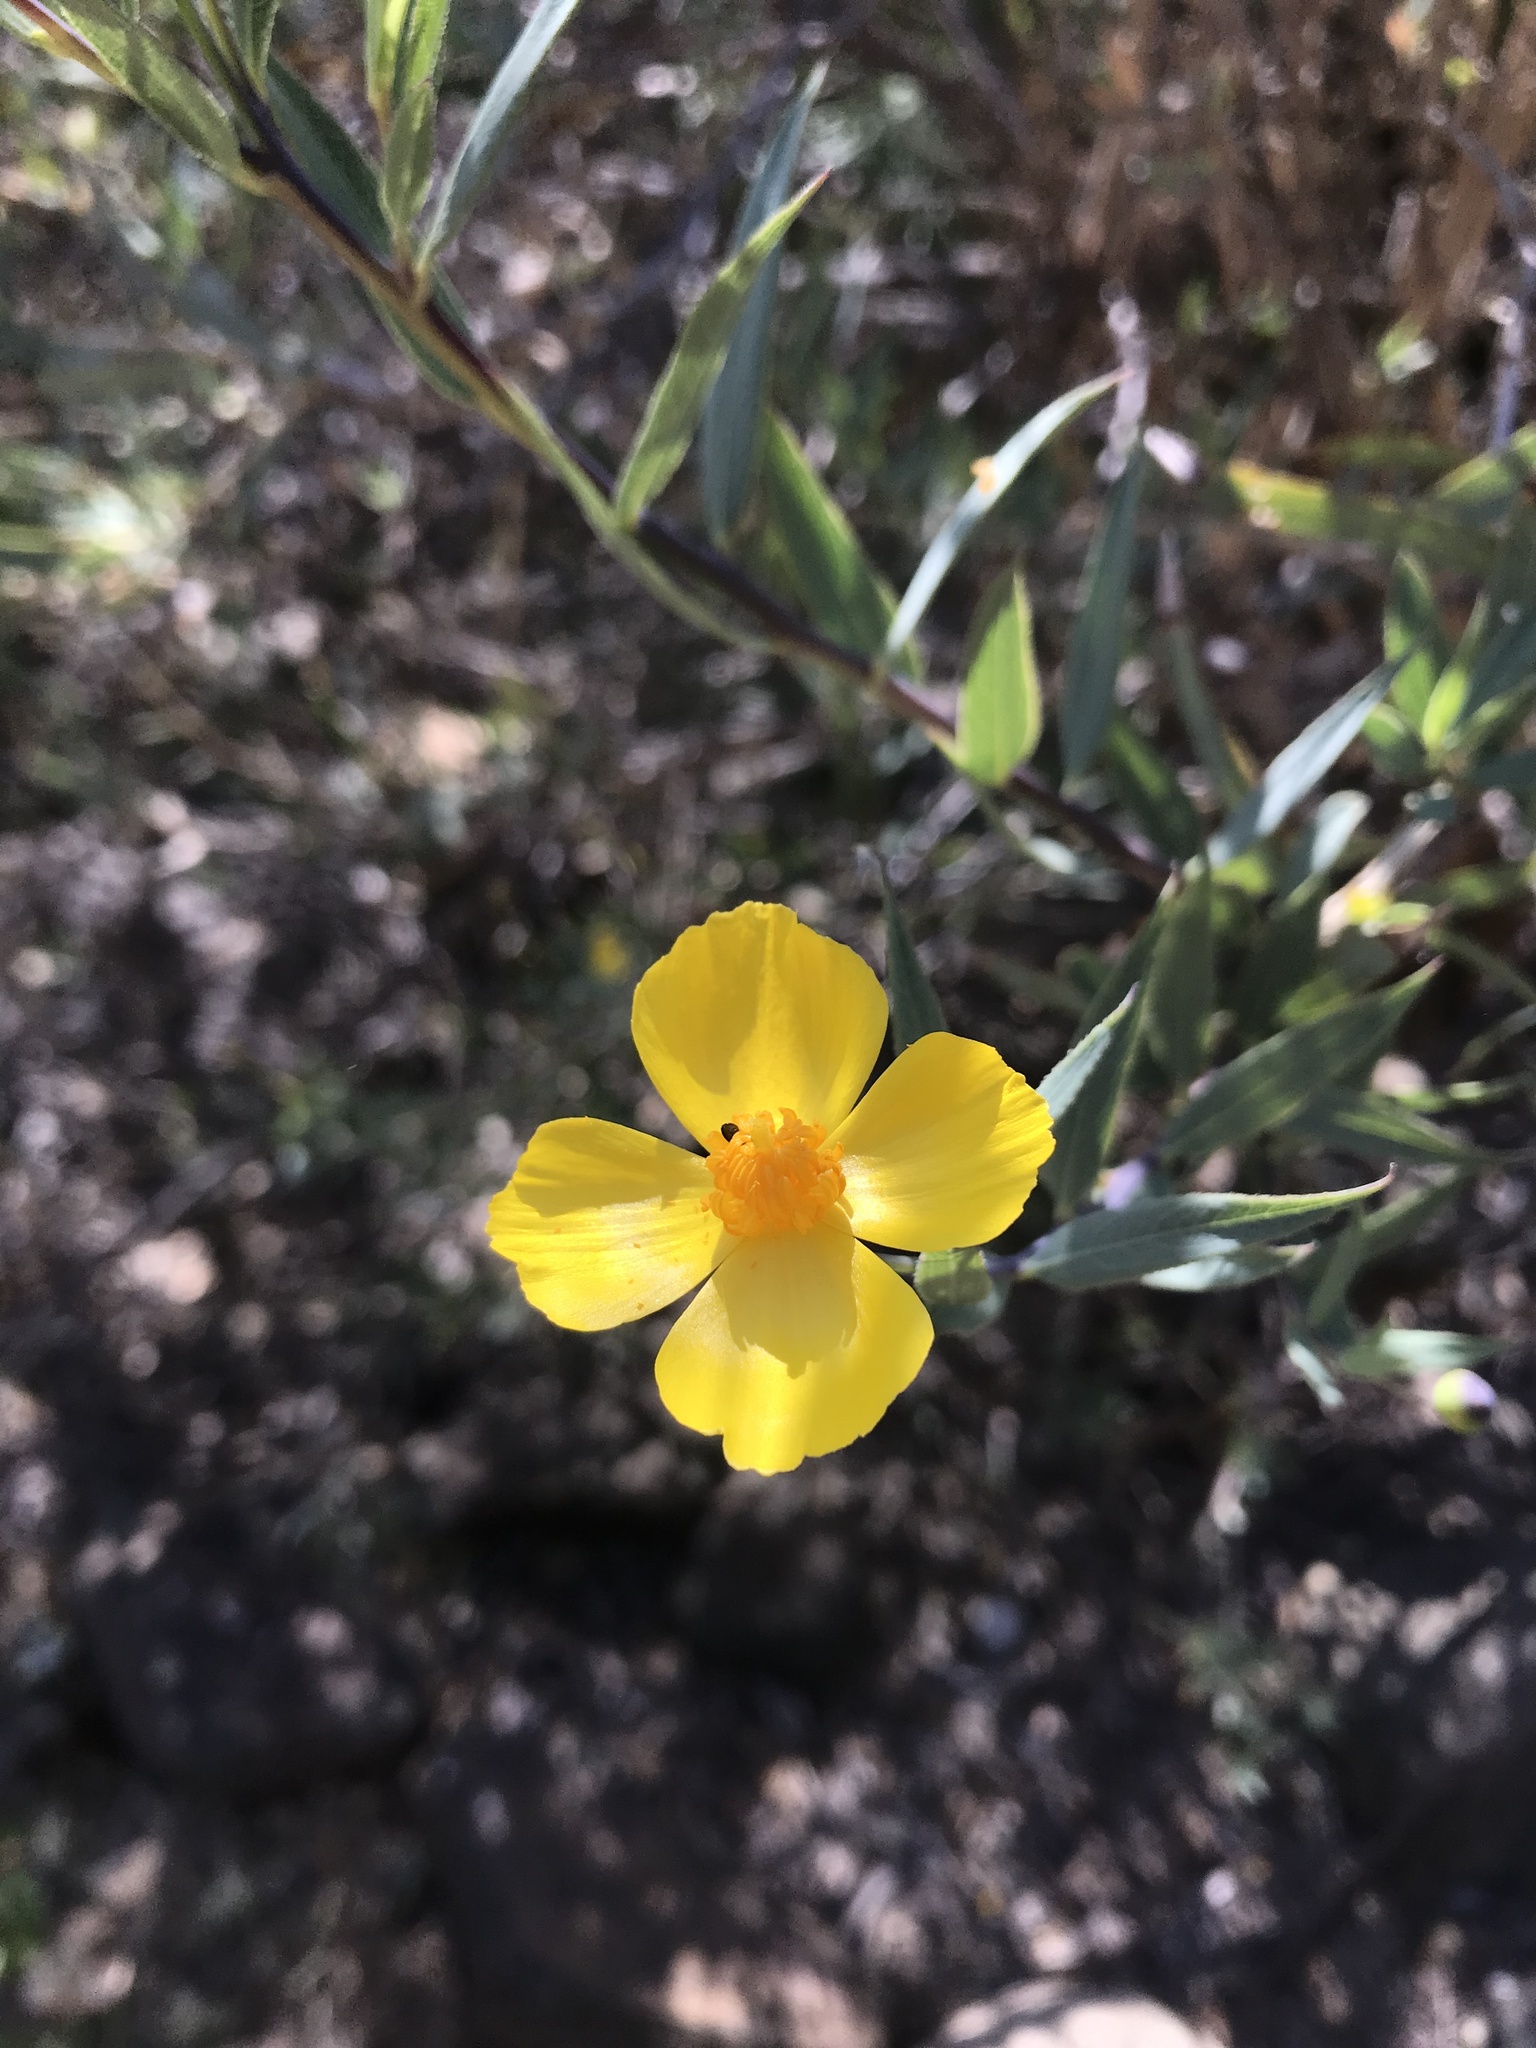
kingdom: Plantae
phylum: Tracheophyta
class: Magnoliopsida
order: Ranunculales
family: Papaveraceae
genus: Dendromecon
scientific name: Dendromecon rigida
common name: Tree poppy
